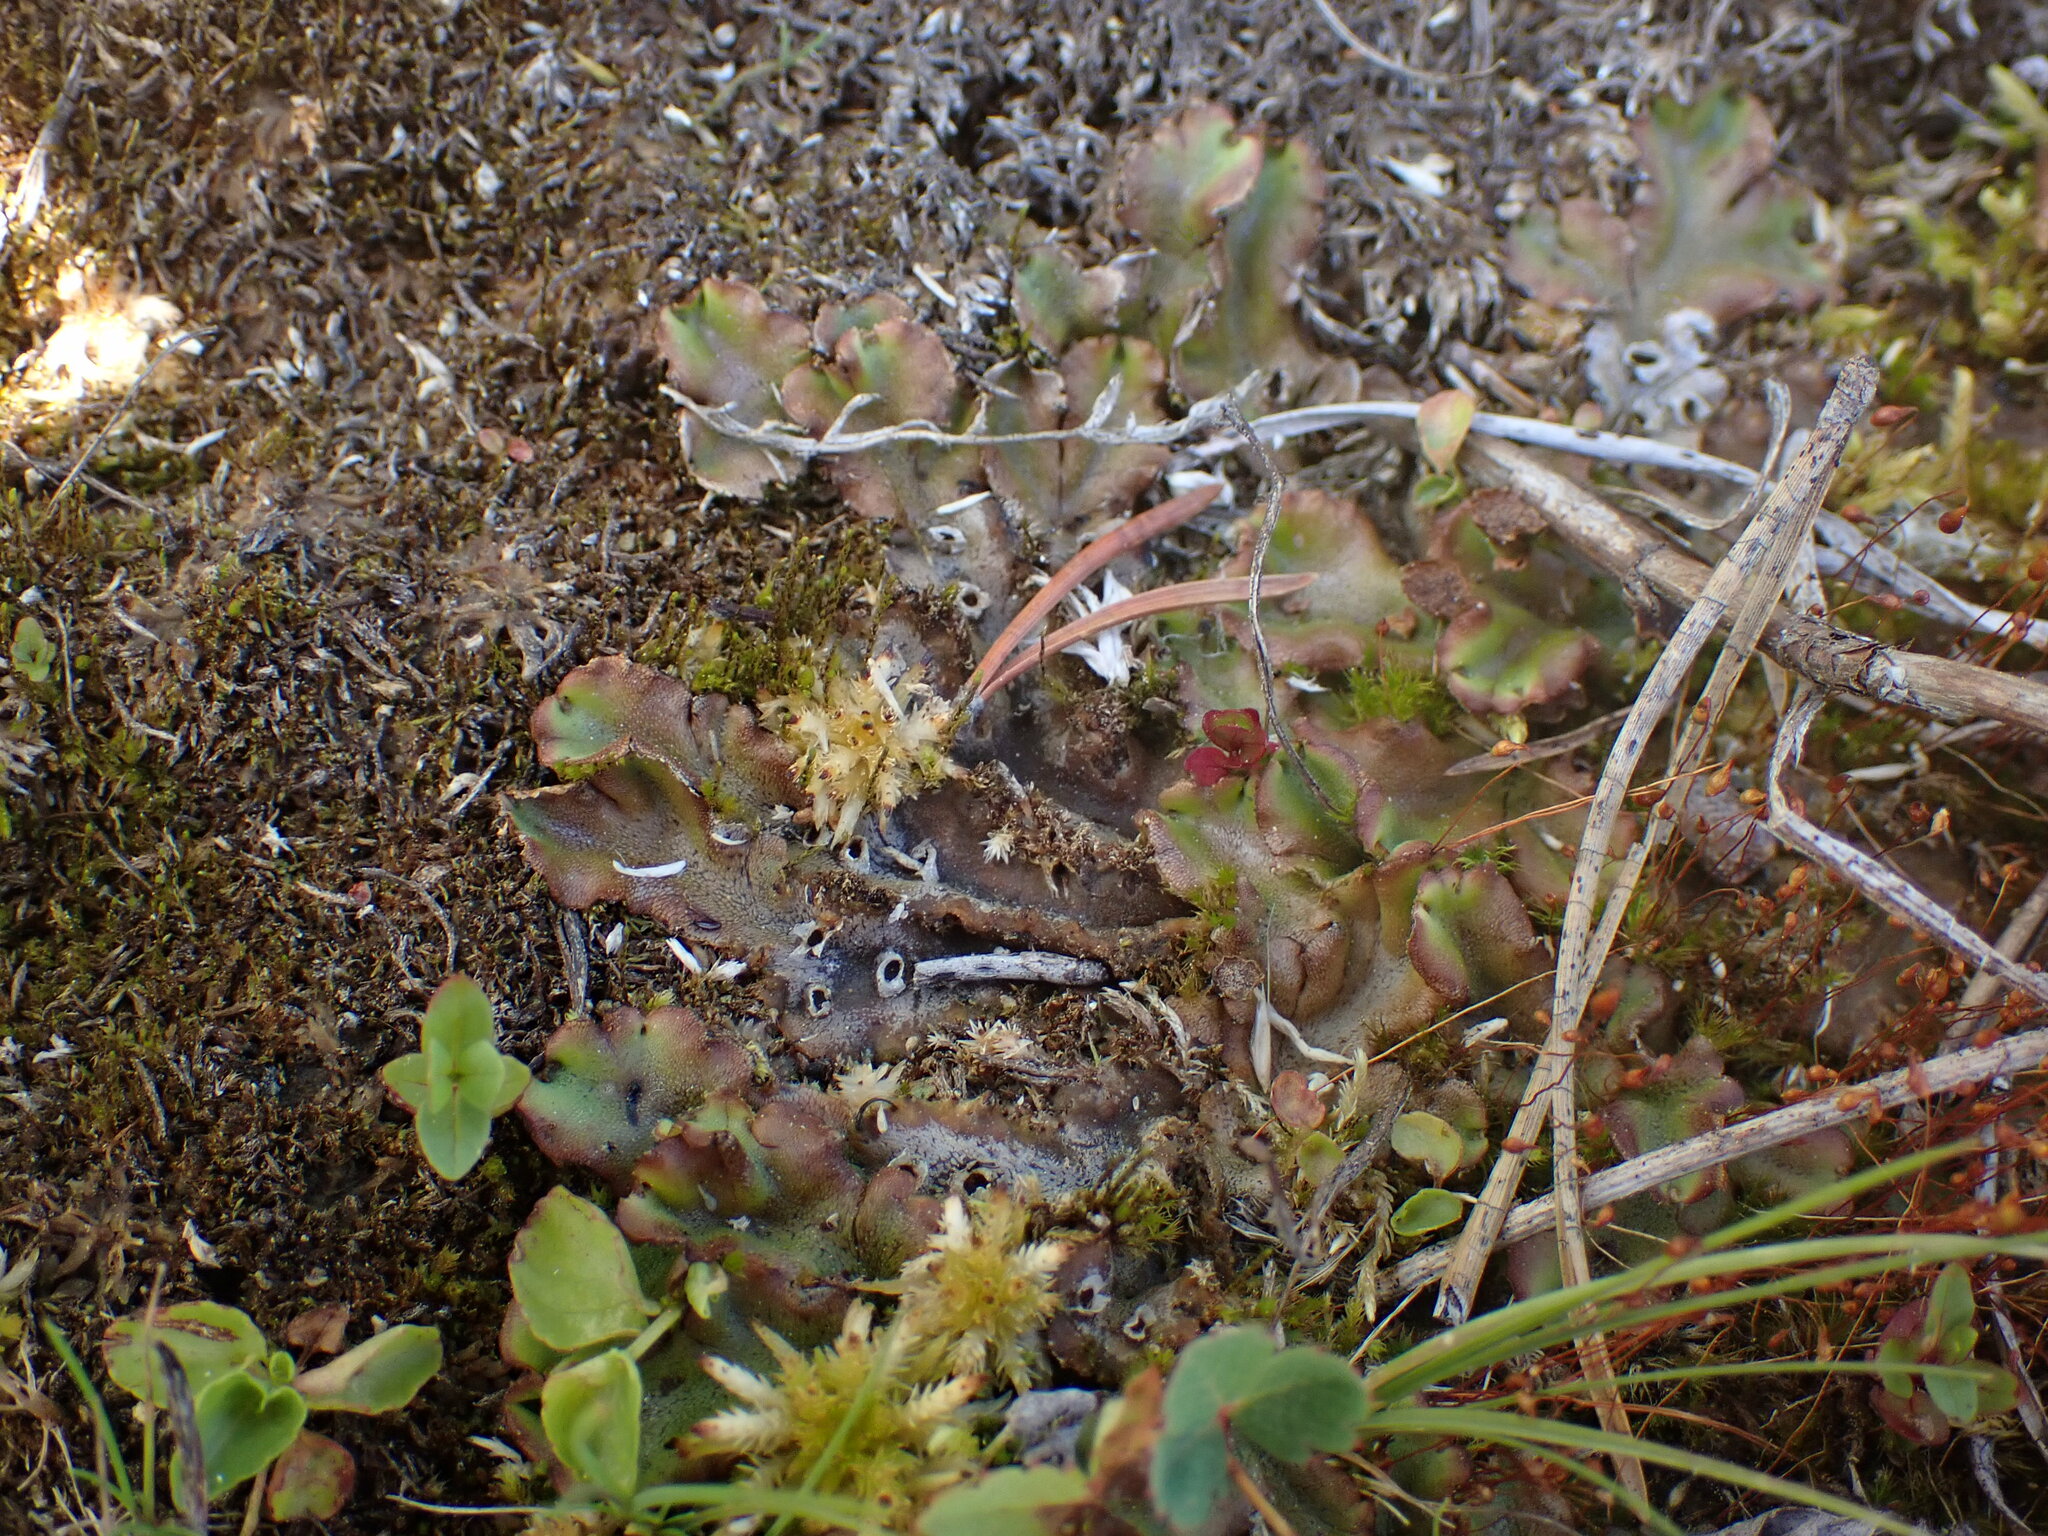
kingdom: Plantae
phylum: Marchantiophyta
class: Marchantiopsida
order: Marchantiales
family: Marchantiaceae
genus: Marchantia
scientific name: Marchantia polymorpha
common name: Common liverwort
